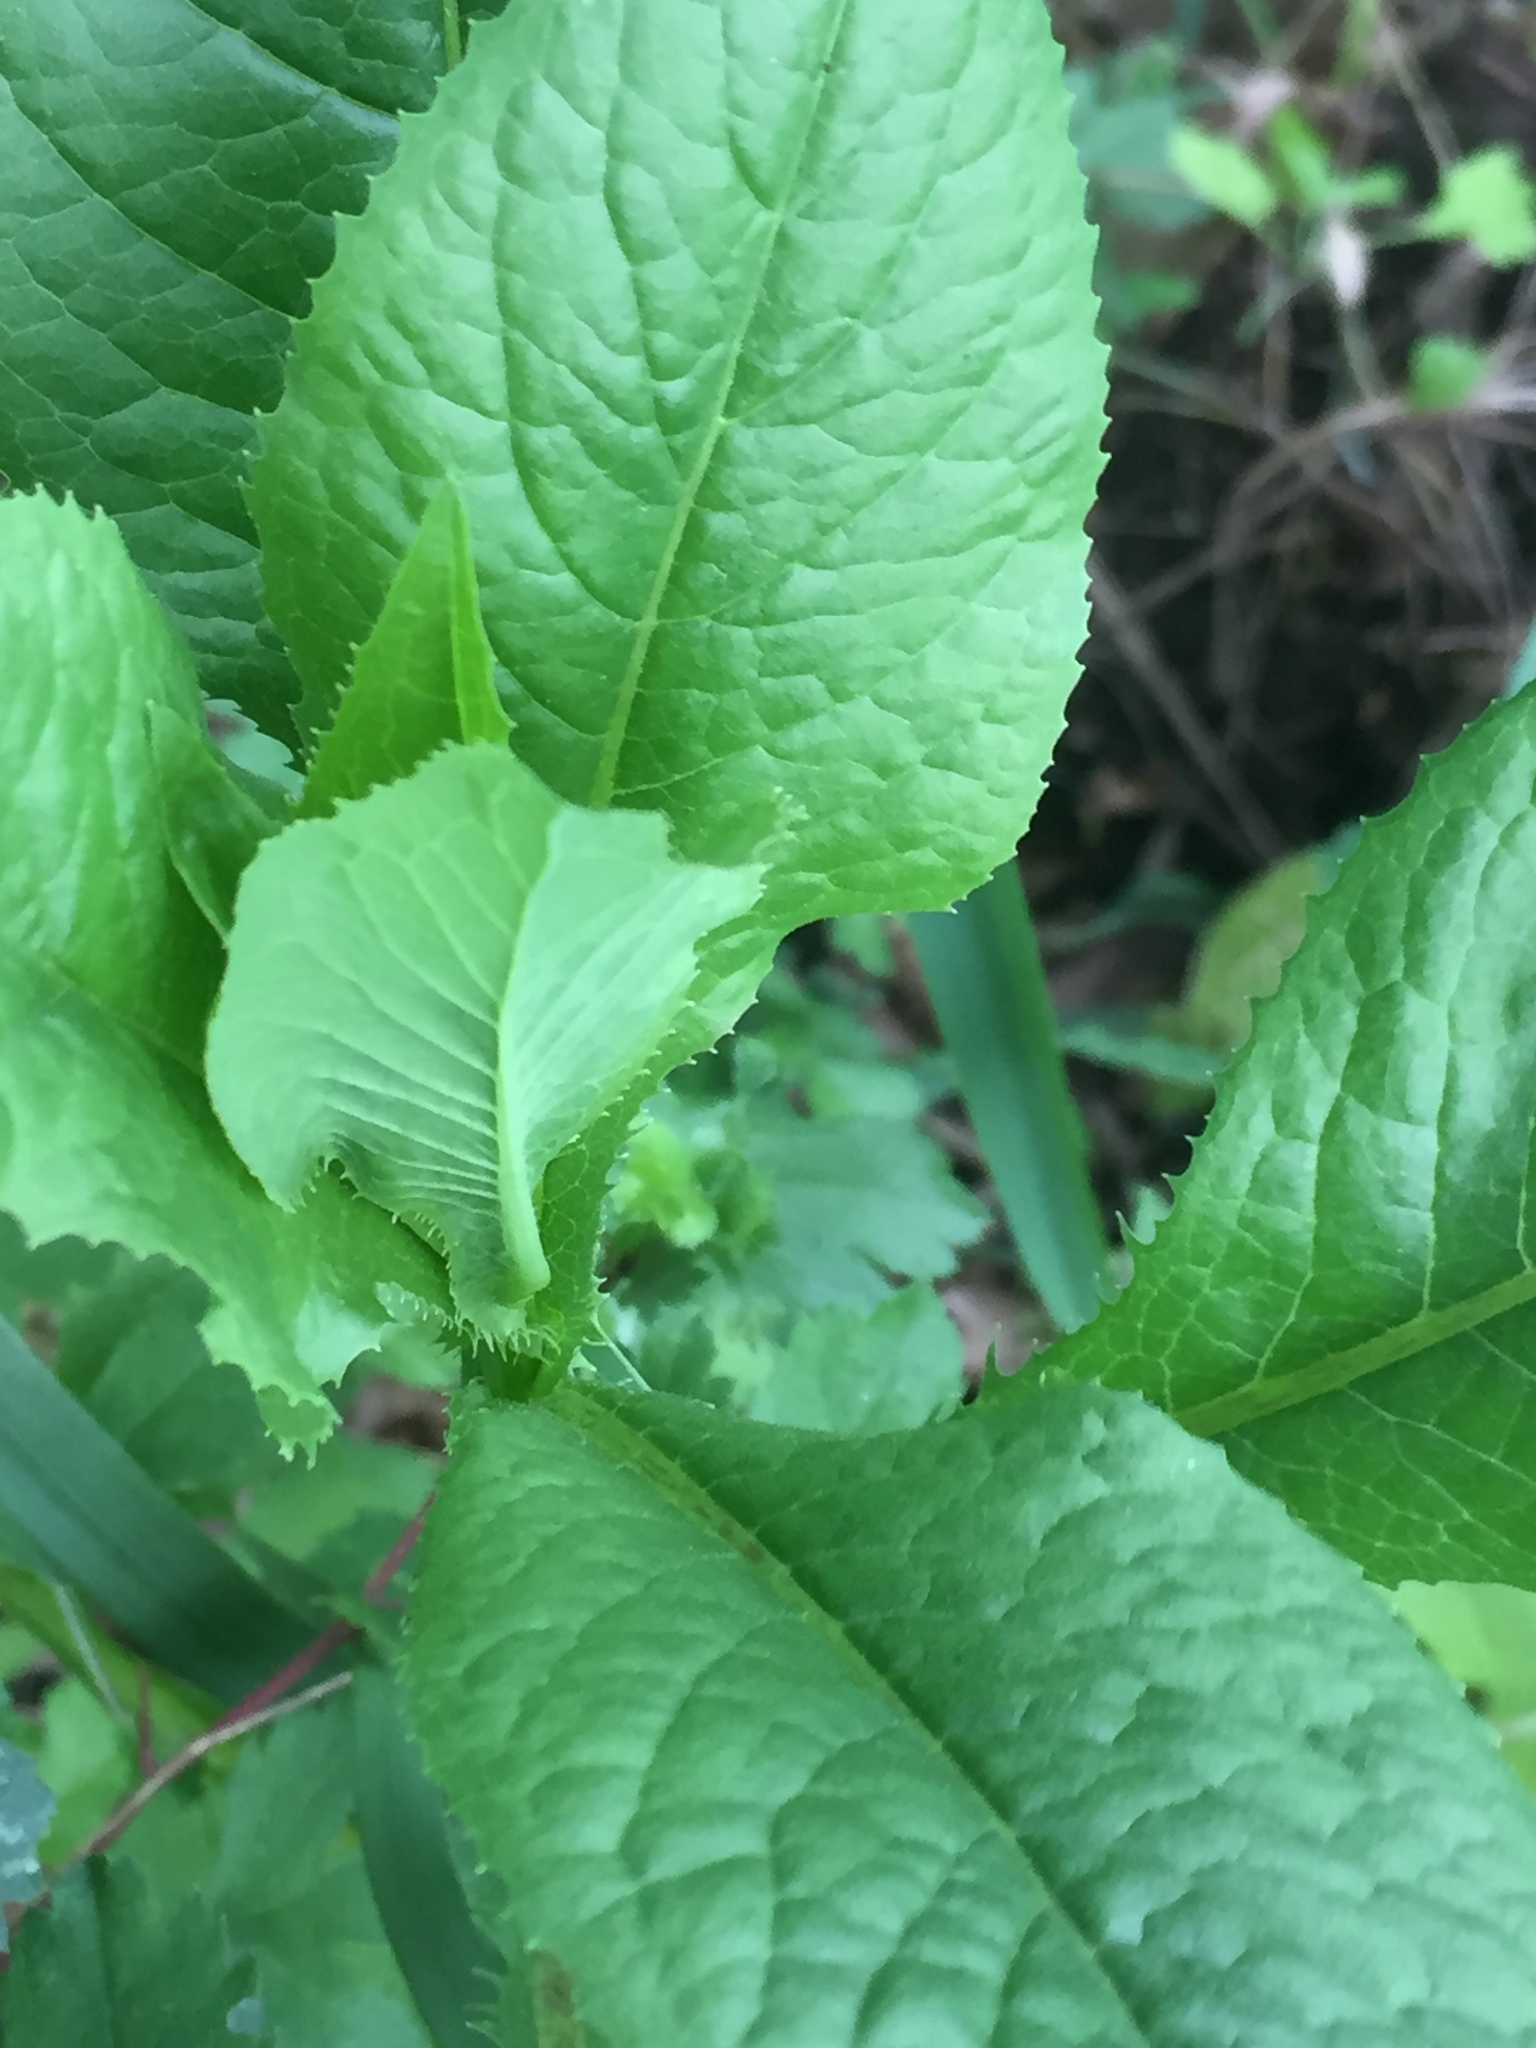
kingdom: Plantae
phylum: Tracheophyta
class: Magnoliopsida
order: Asterales
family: Asteraceae
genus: Lactuca
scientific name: Lactuca quercina
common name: Wild lettuce
